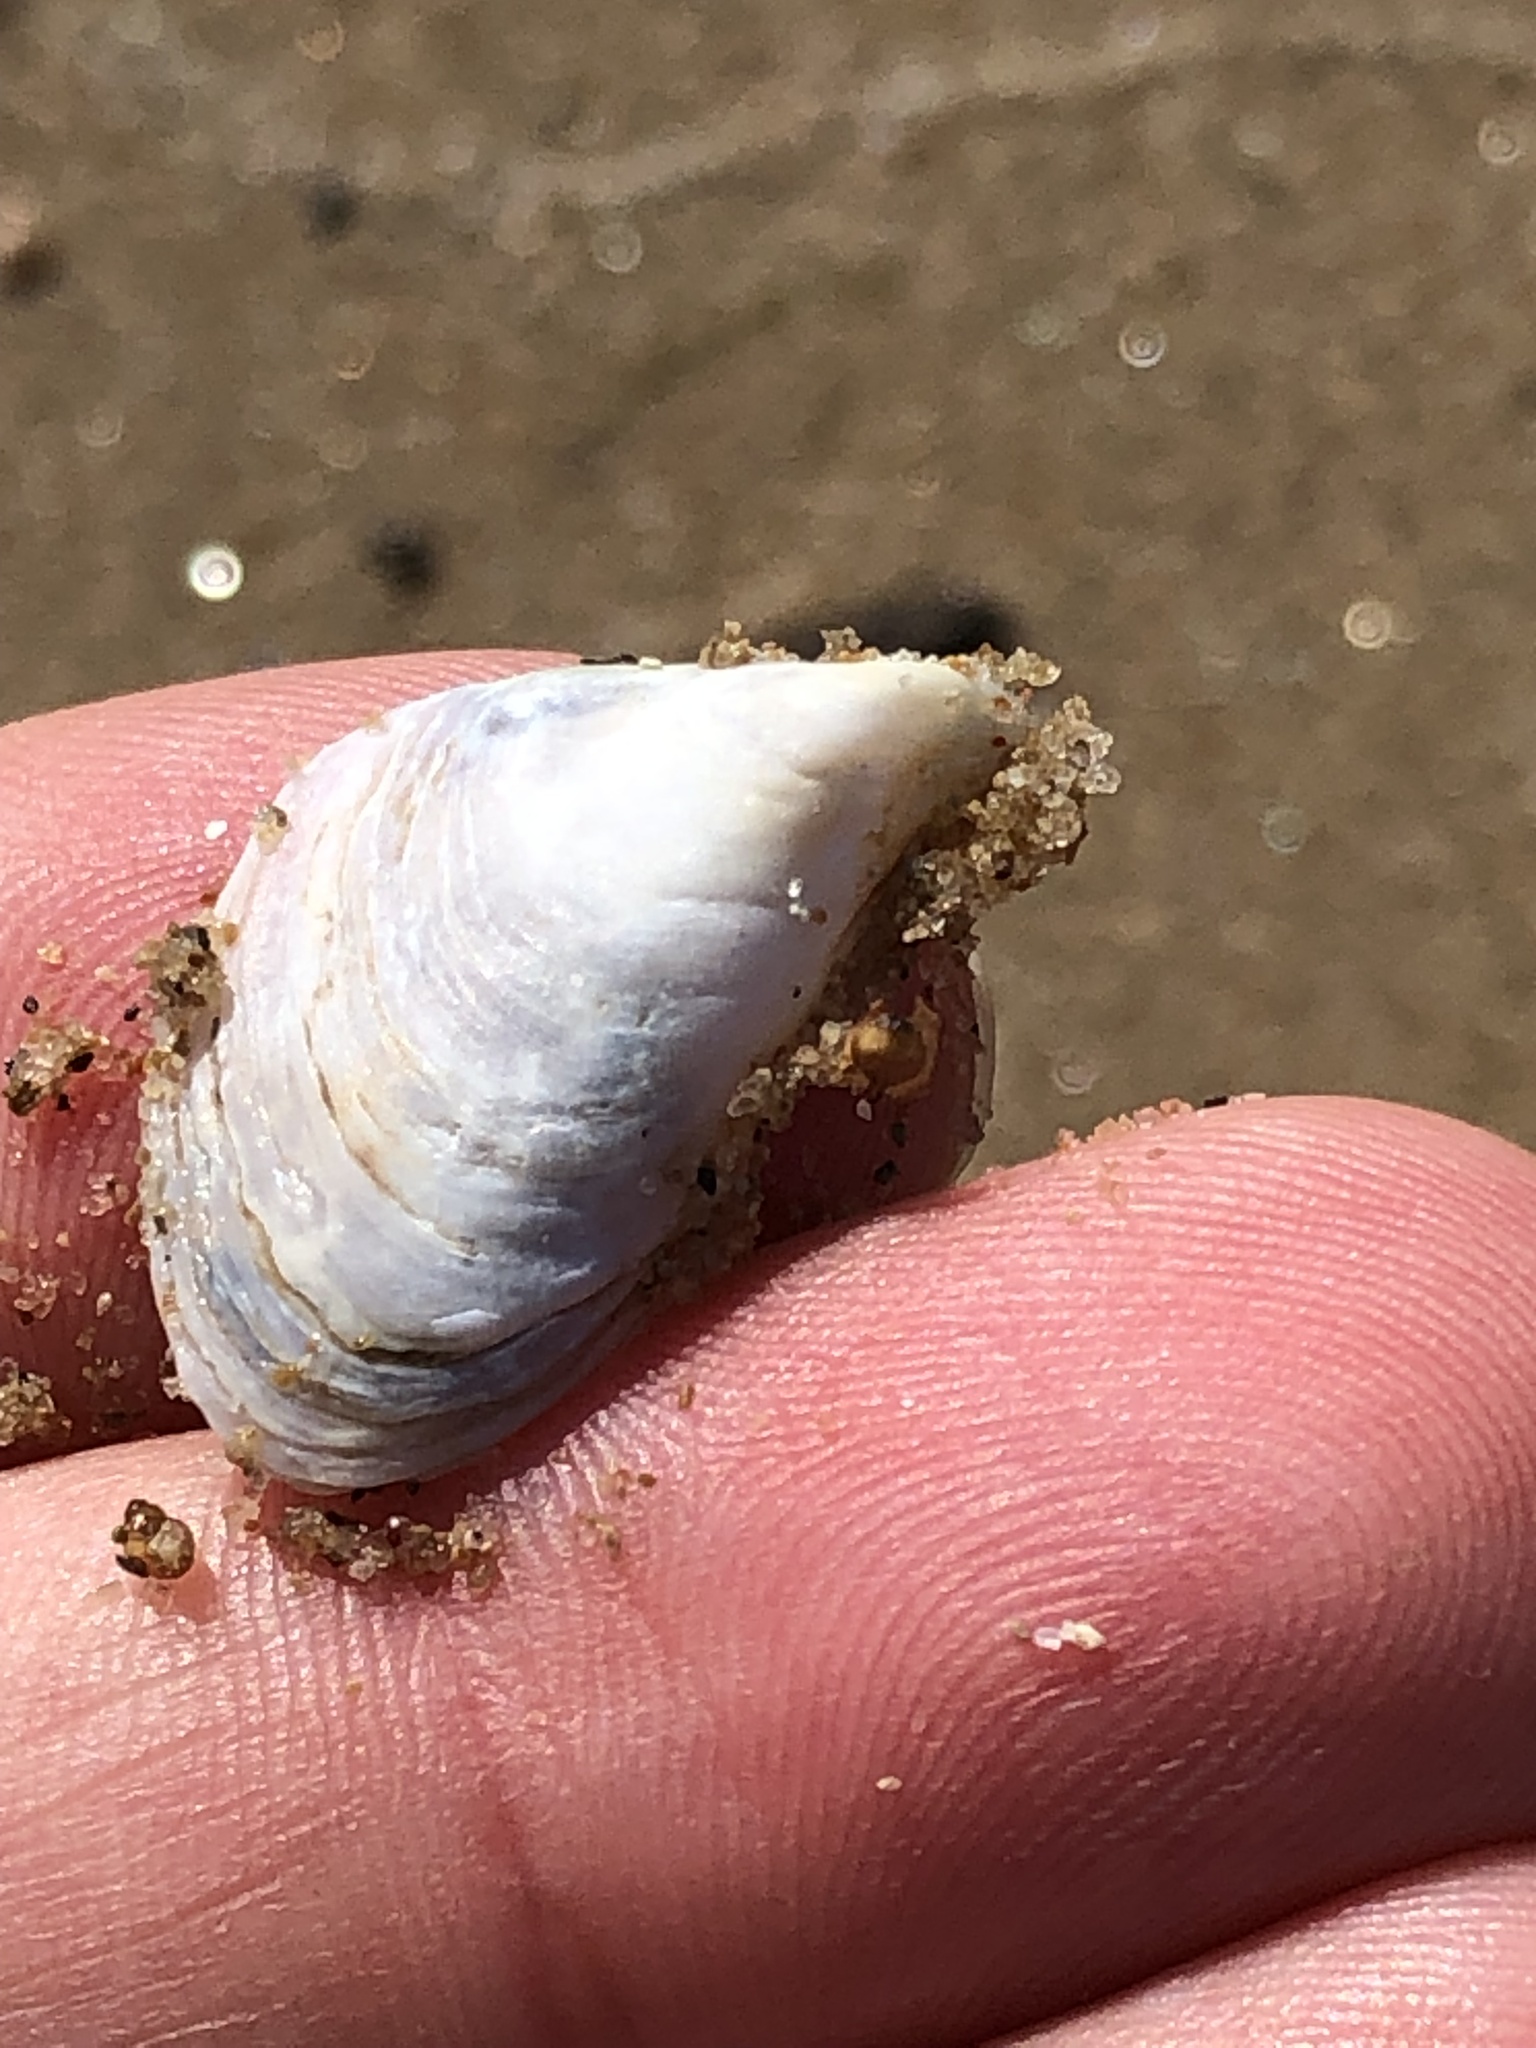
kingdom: Animalia
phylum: Mollusca
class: Bivalvia
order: Myida
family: Dreissenidae
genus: Dreissena
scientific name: Dreissena bugensis
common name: Quagga mussel
